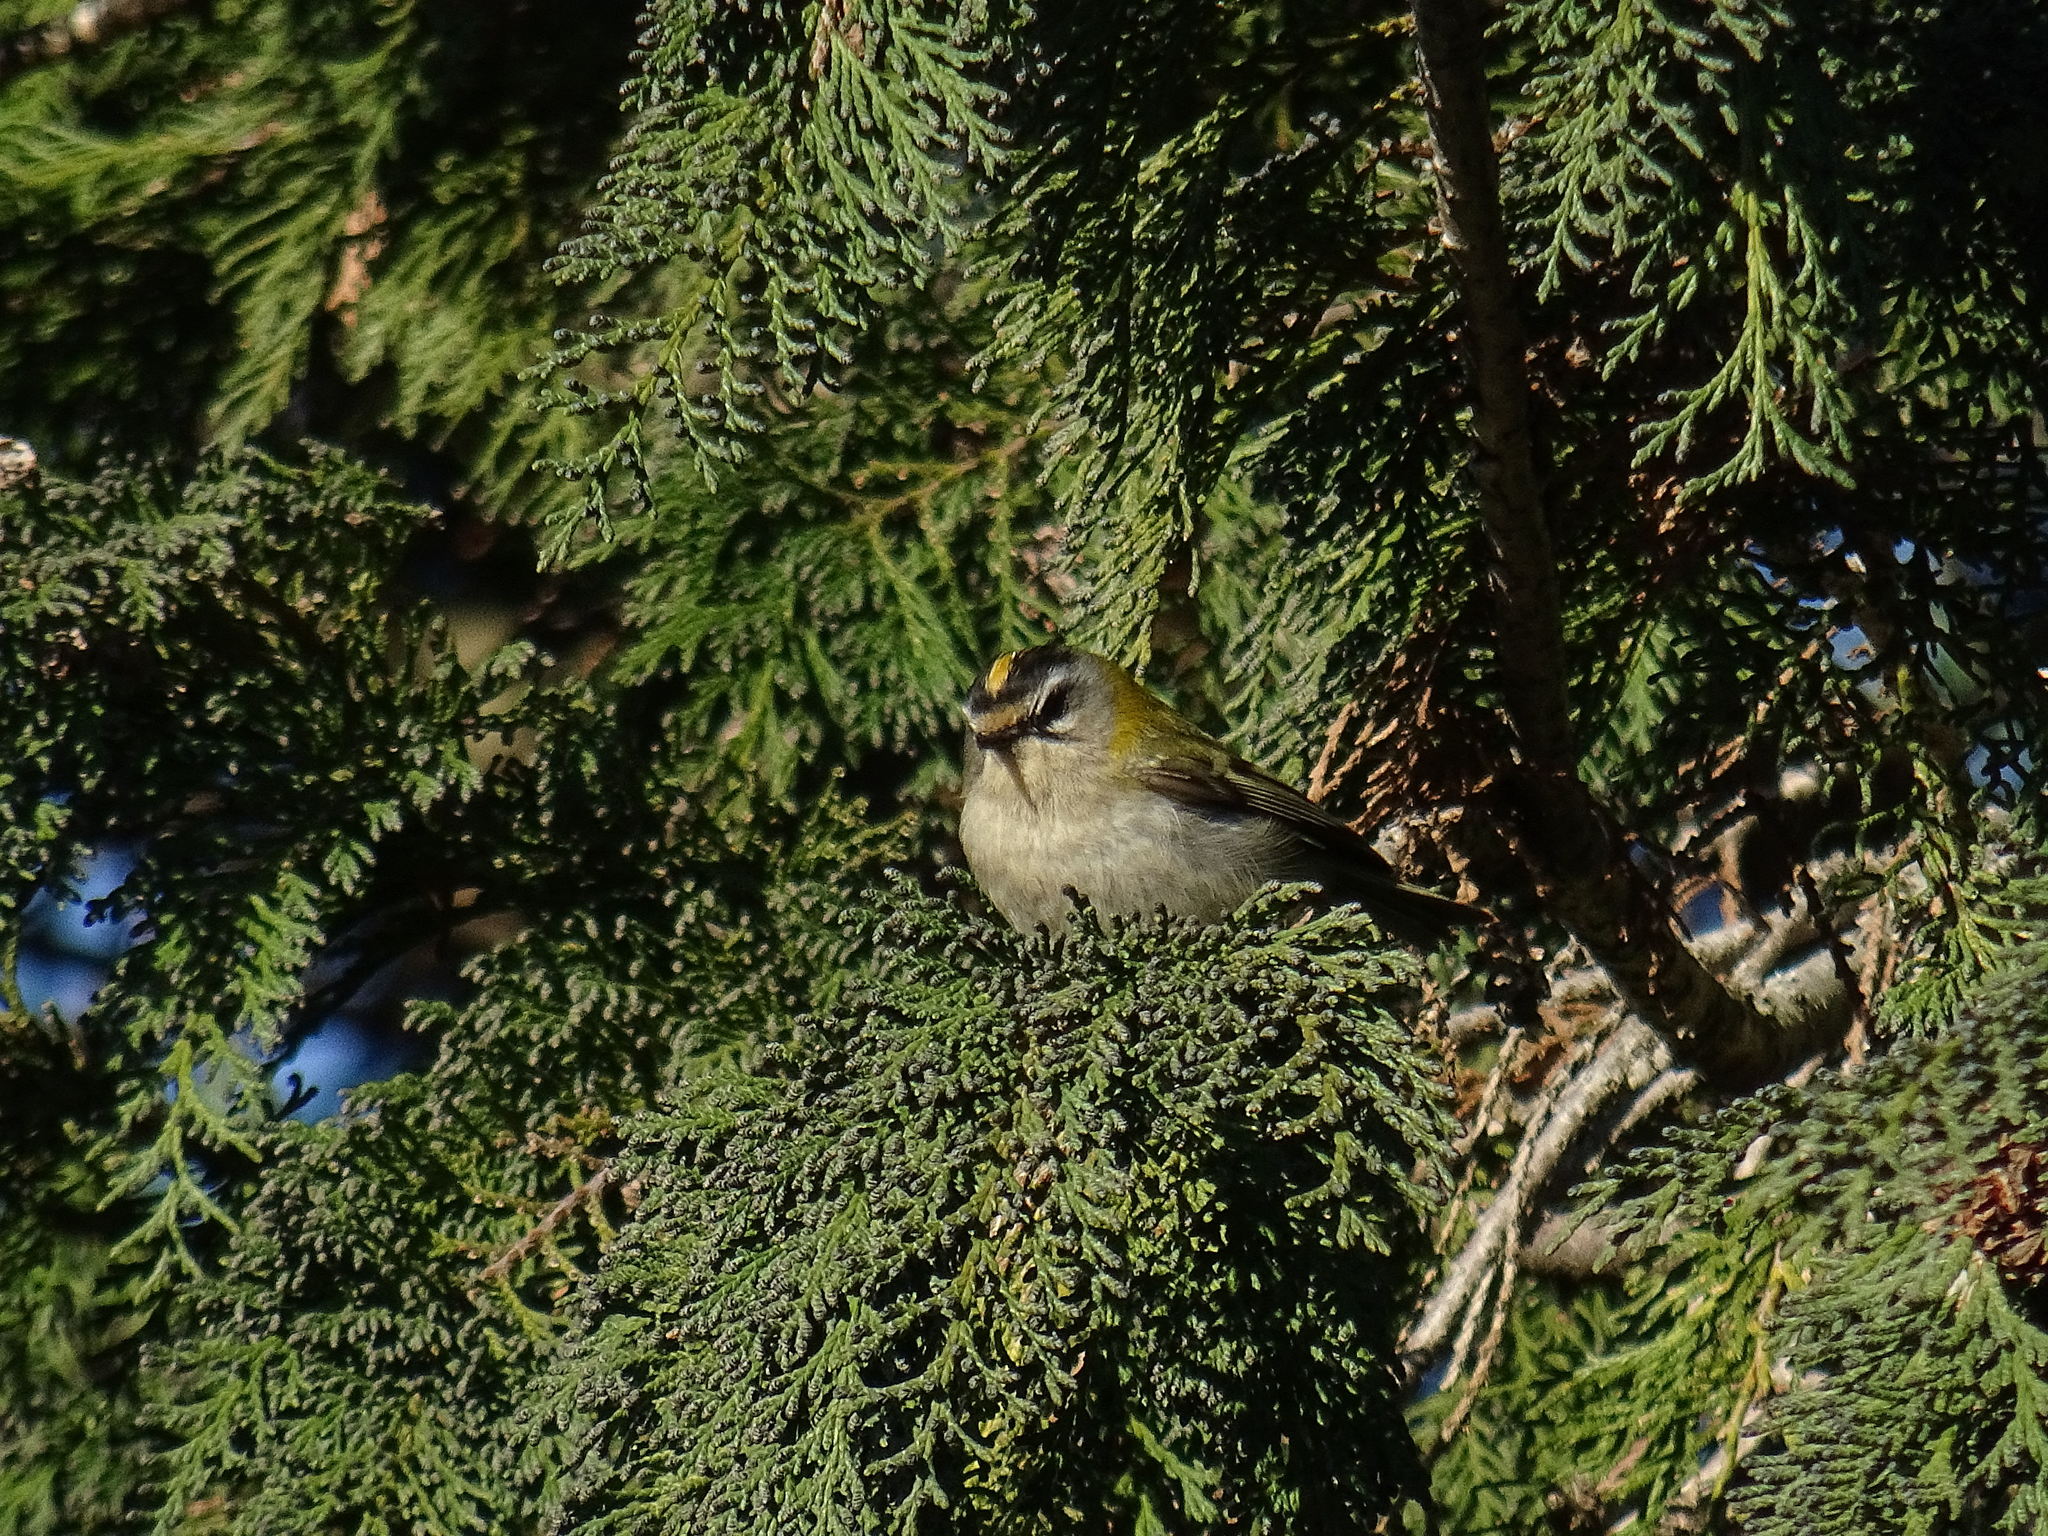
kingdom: Animalia
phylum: Chordata
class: Aves
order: Passeriformes
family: Regulidae
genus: Regulus
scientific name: Regulus ignicapilla
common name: Firecrest
